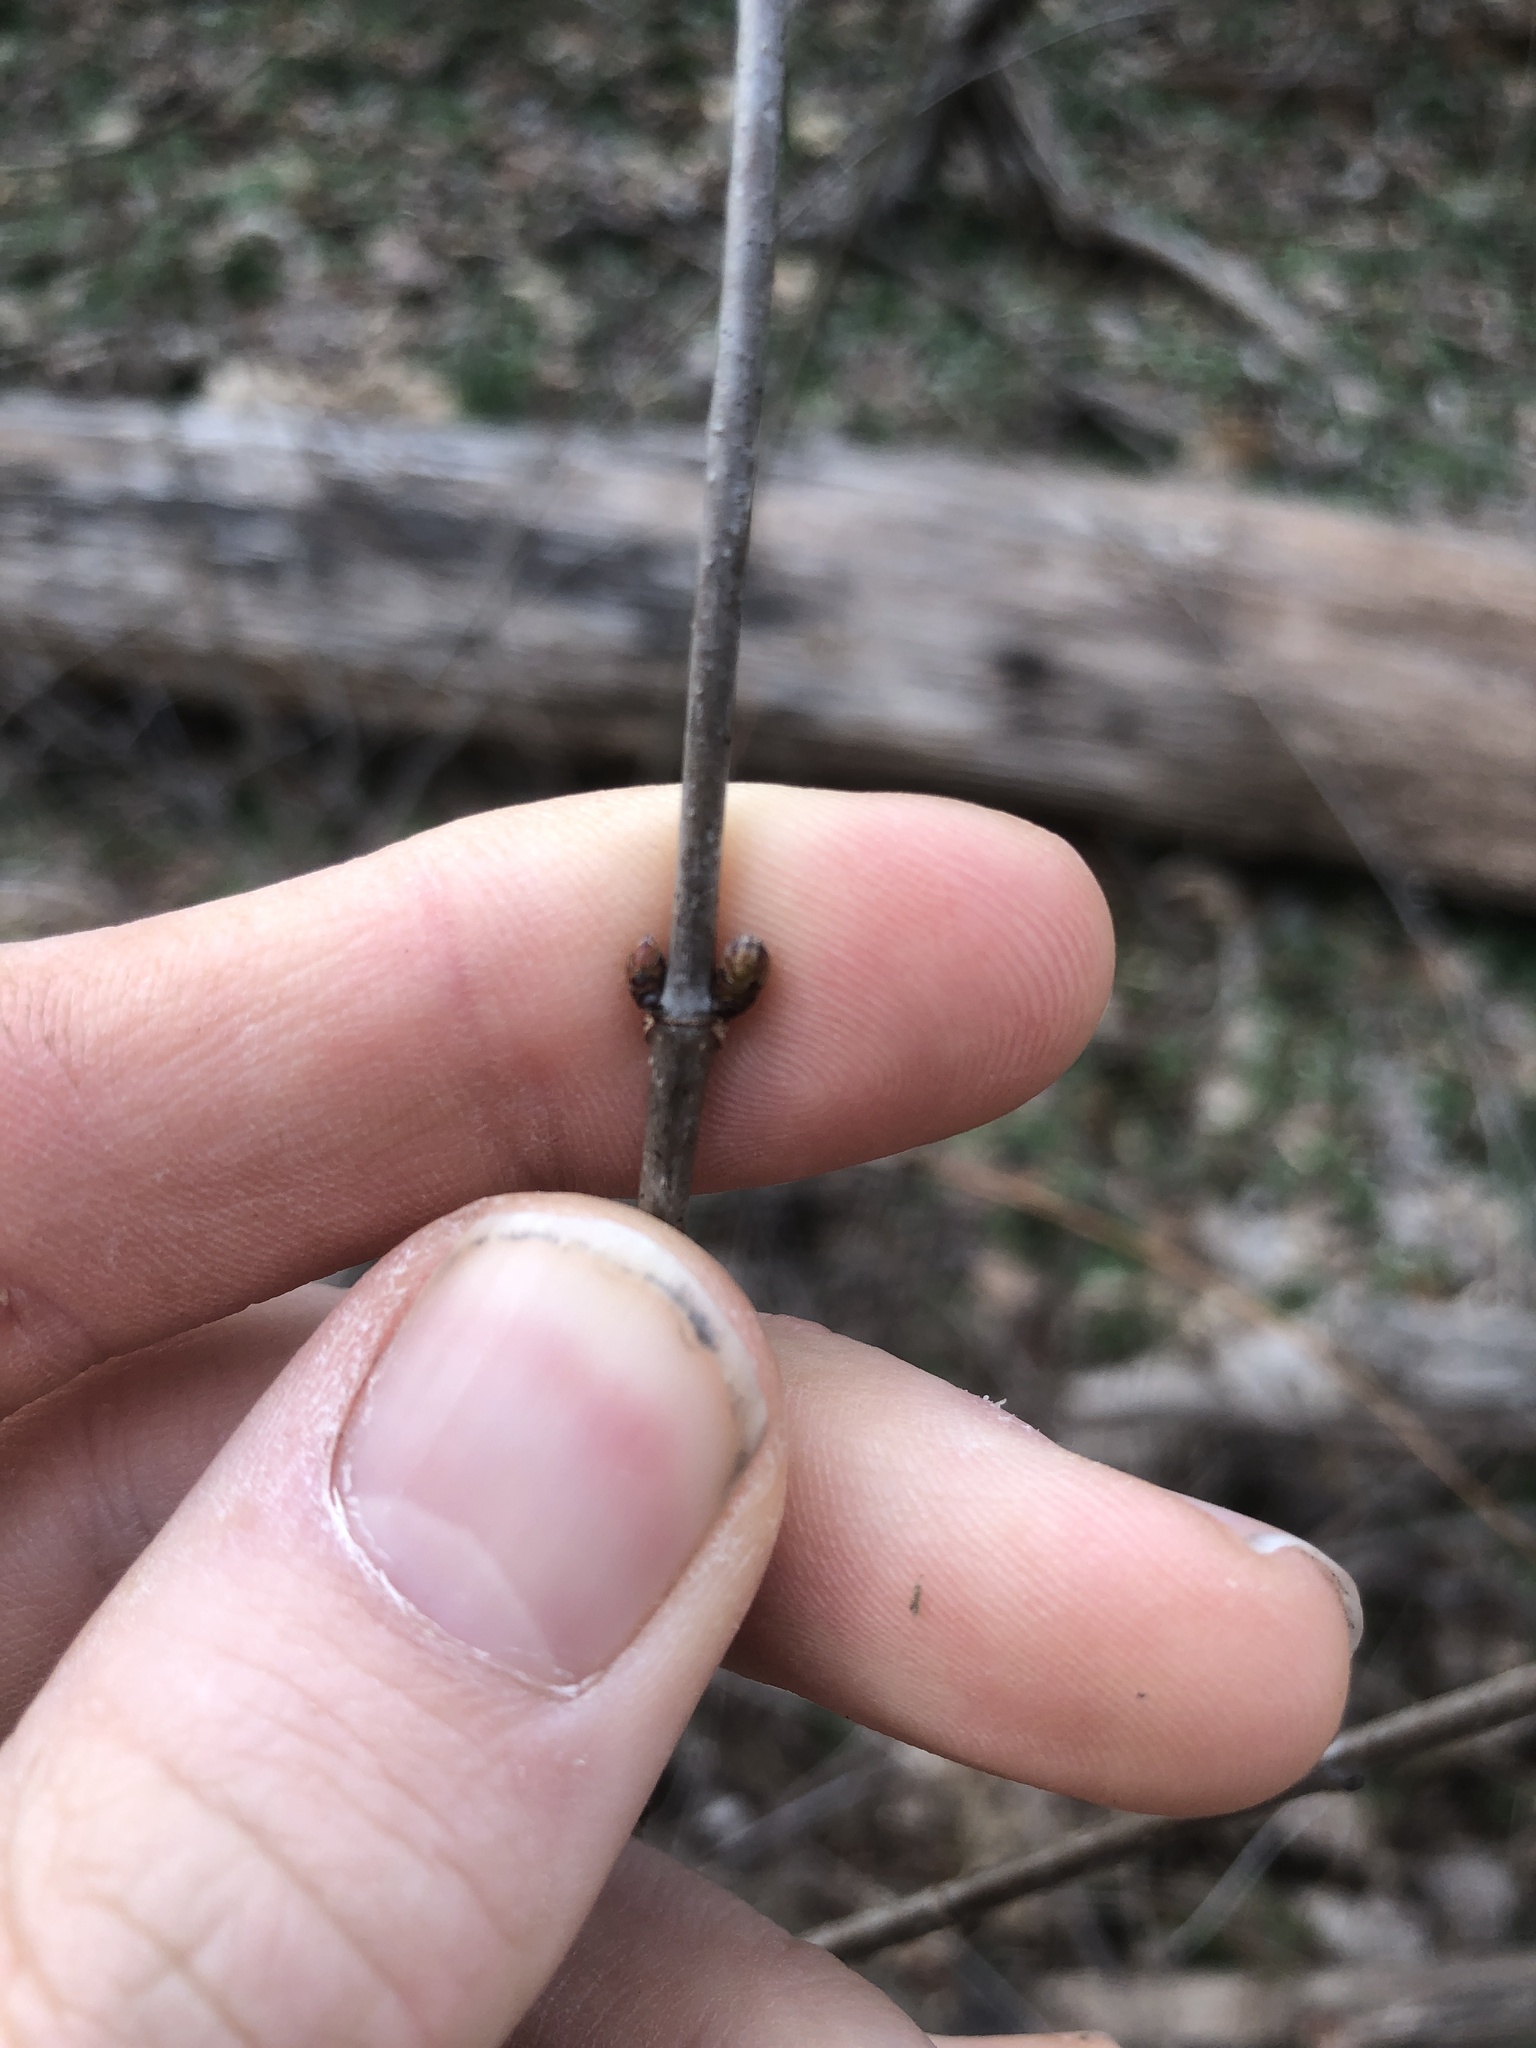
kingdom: Plantae
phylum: Tracheophyta
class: Magnoliopsida
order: Rosales
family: Rosaceae
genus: Rhodotypos
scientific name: Rhodotypos scandens
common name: Jetbead
